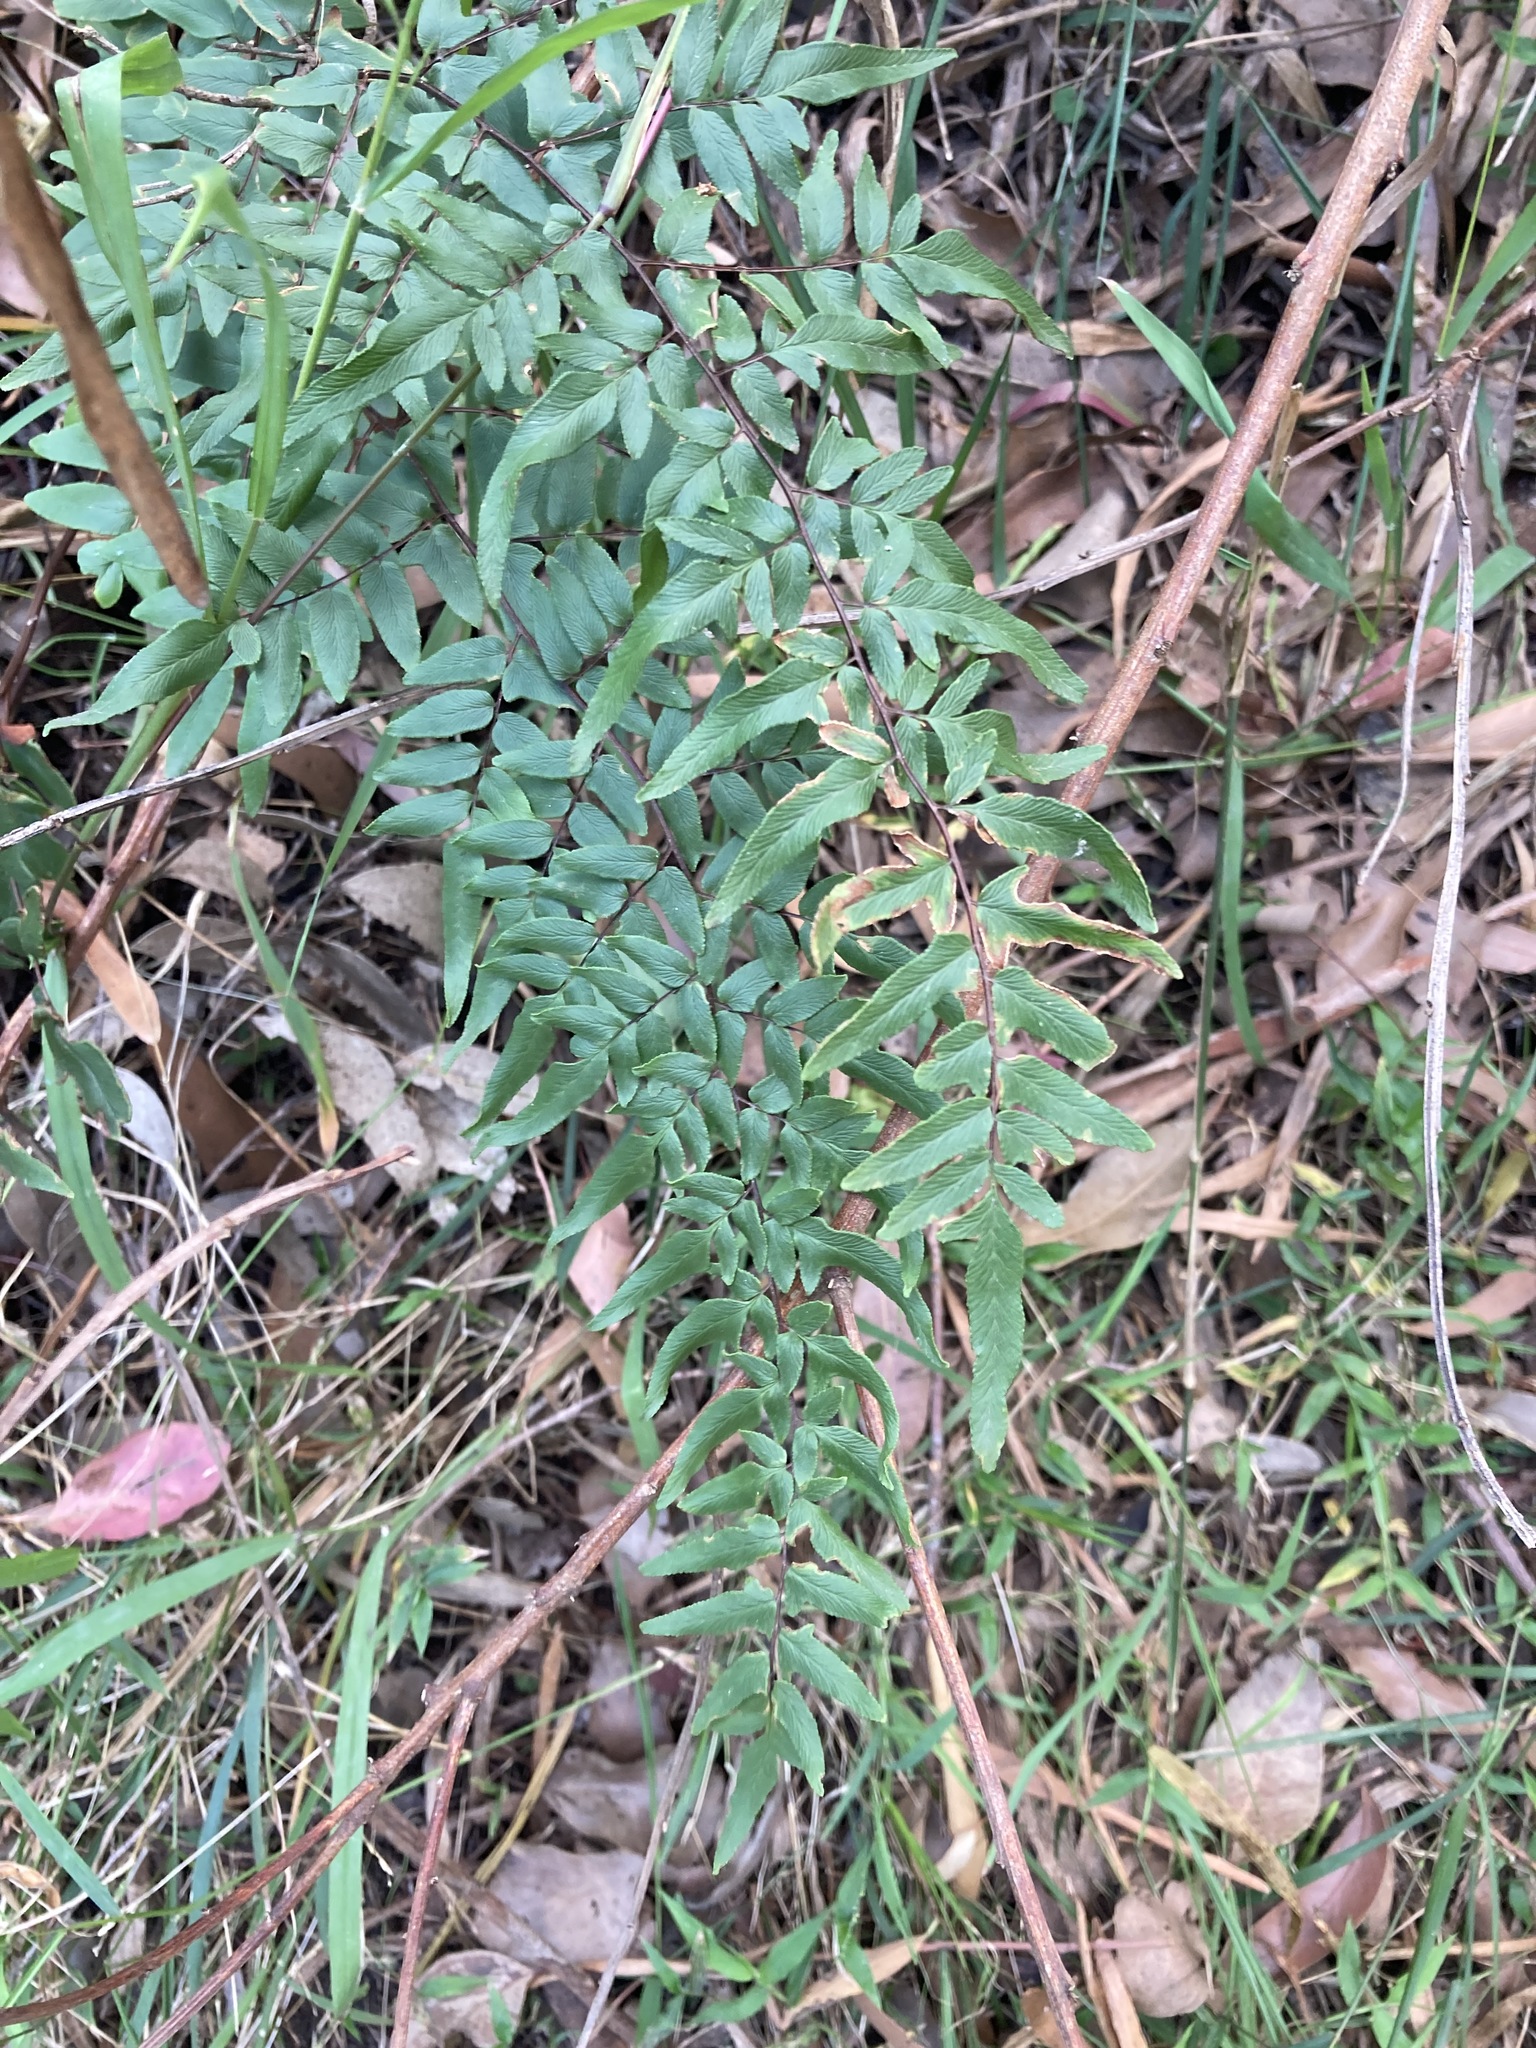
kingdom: Plantae
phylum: Tracheophyta
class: Polypodiopsida
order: Polypodiales
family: Pteridaceae
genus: Cheilanthes
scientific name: Cheilanthes viridis
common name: Green cliffbrake
